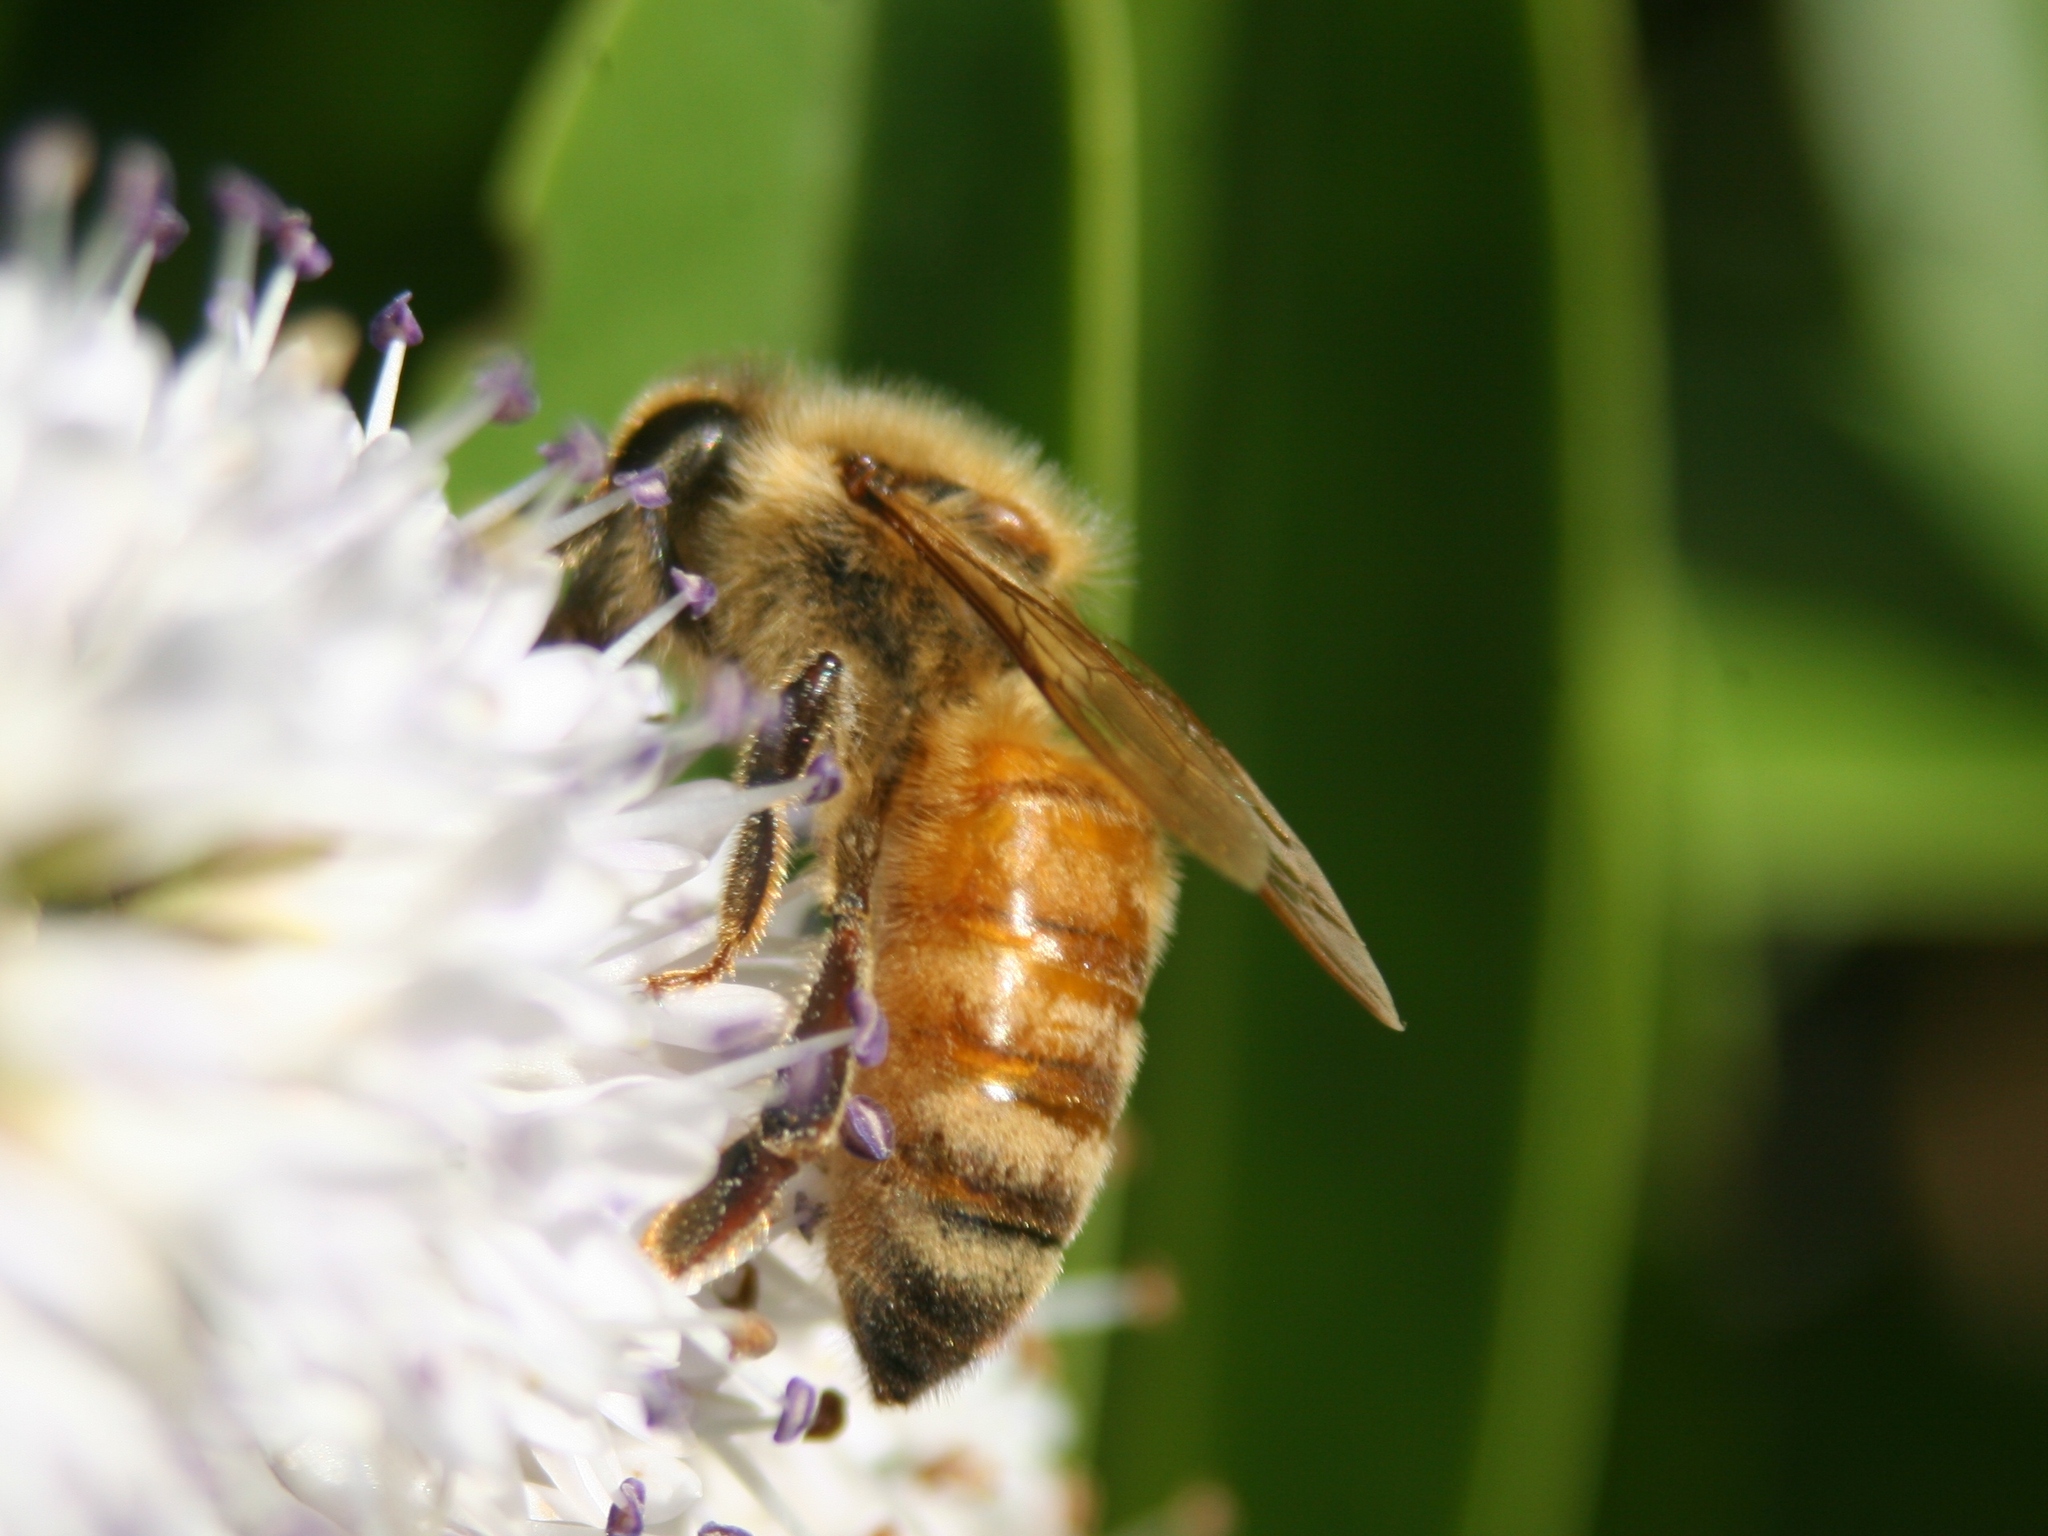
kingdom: Animalia
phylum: Arthropoda
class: Insecta
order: Hymenoptera
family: Apidae
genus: Apis
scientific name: Apis mellifera
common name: Honey bee
